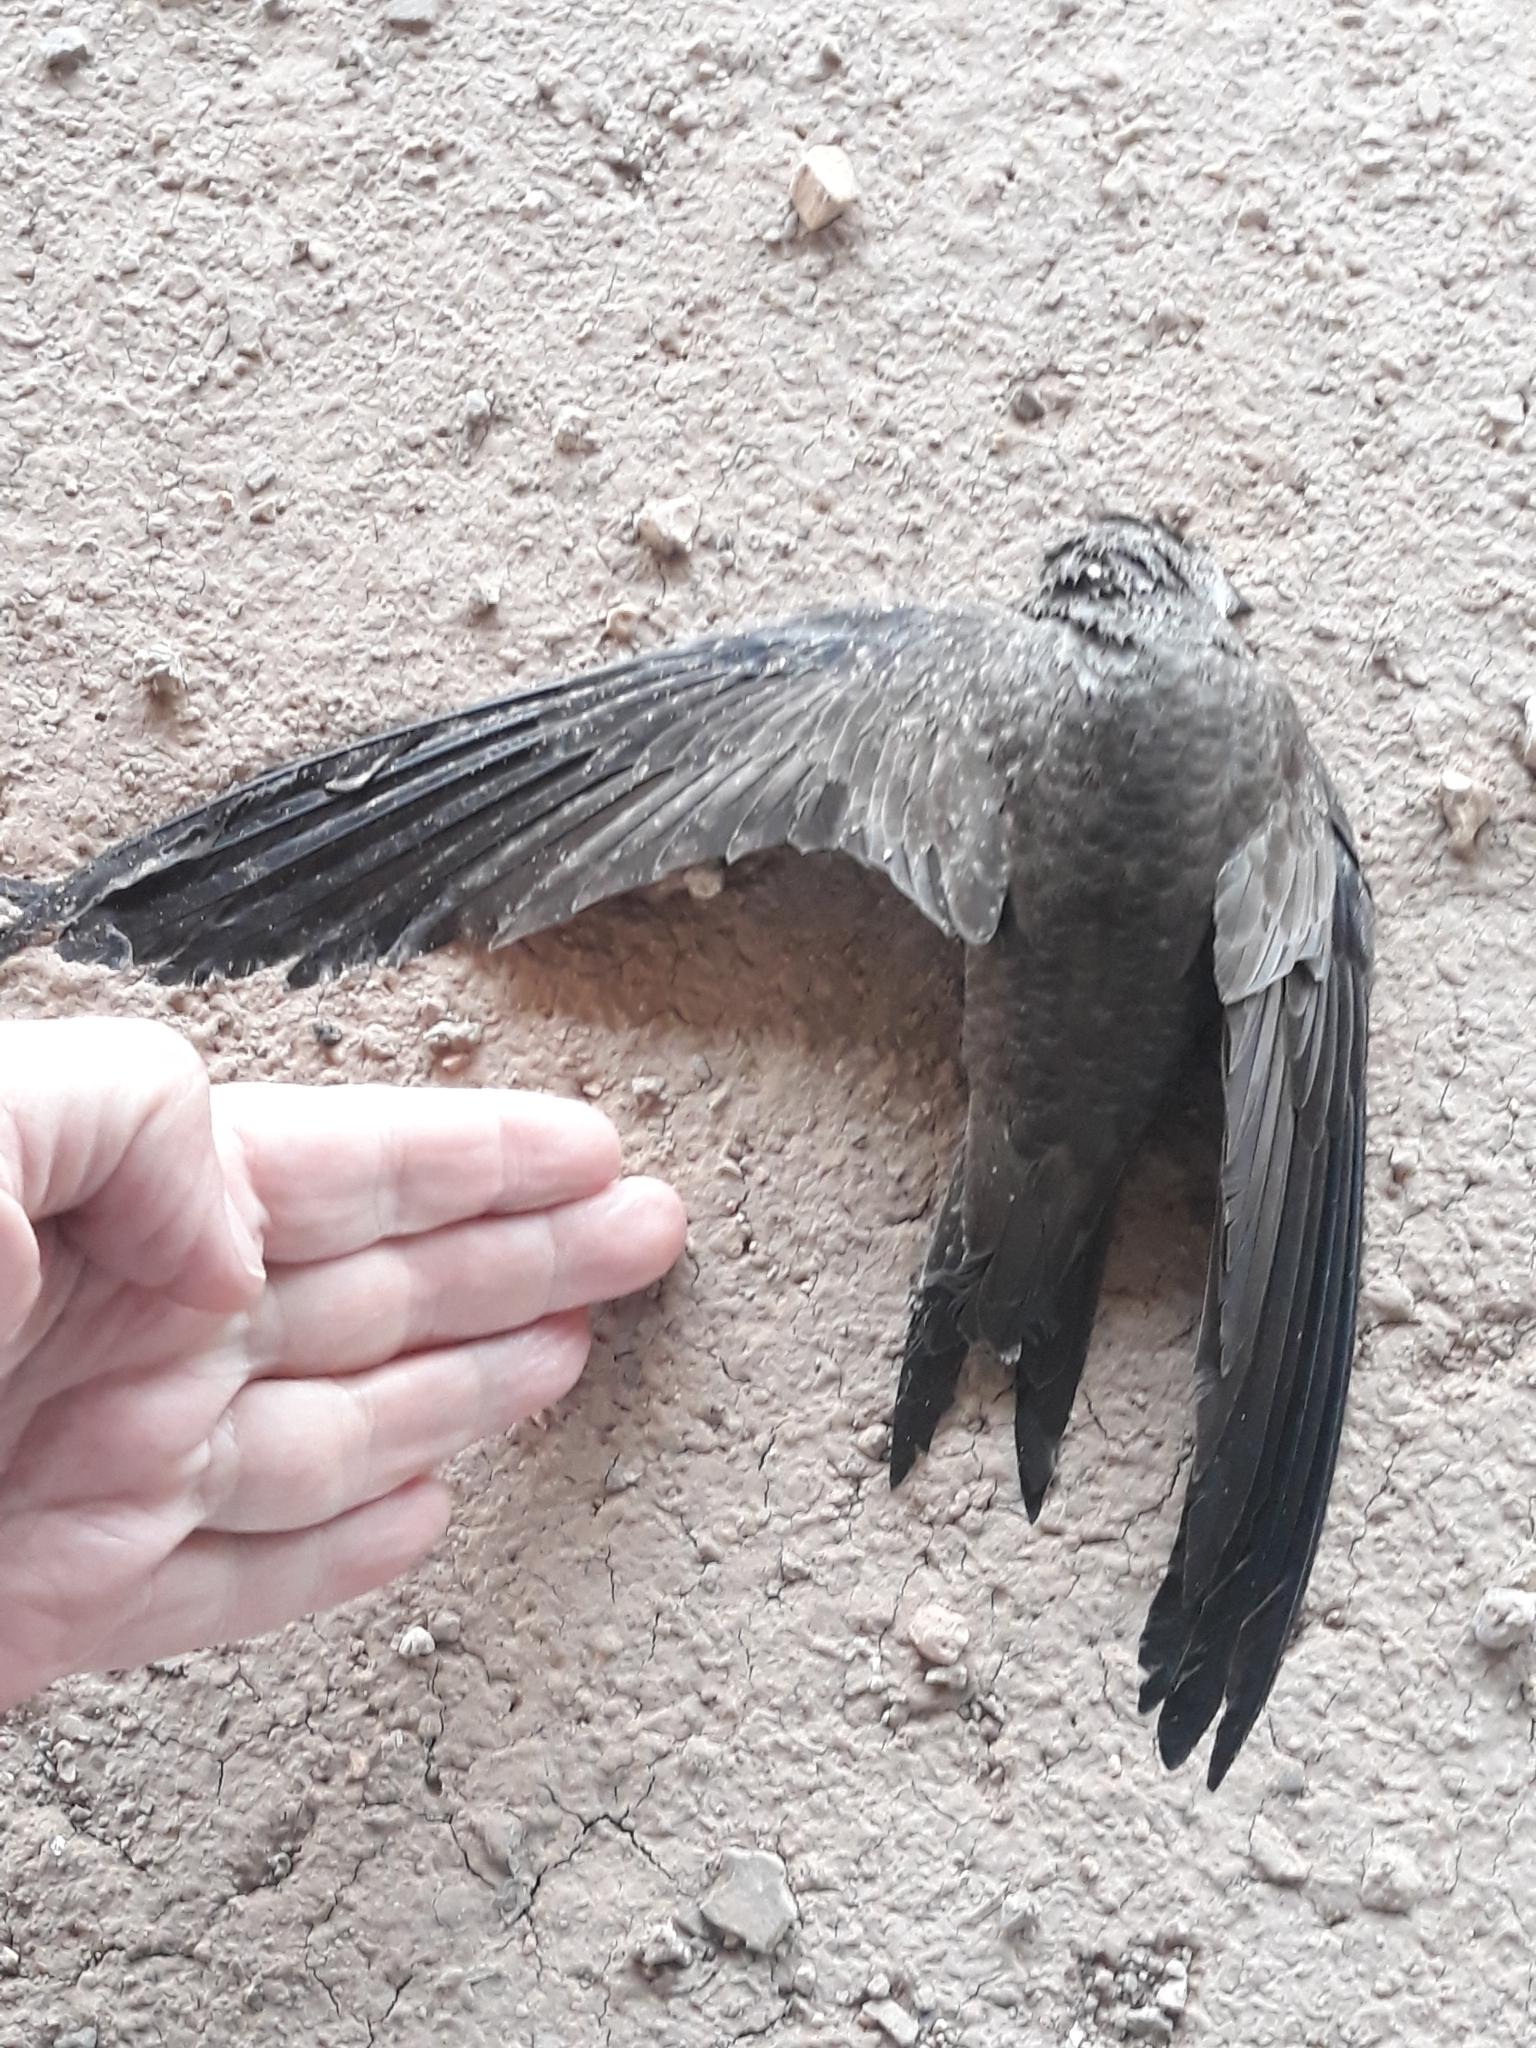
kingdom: Animalia
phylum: Chordata
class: Aves
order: Apodiformes
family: Apodidae
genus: Apus
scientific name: Apus pallidus
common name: Pallid swift
